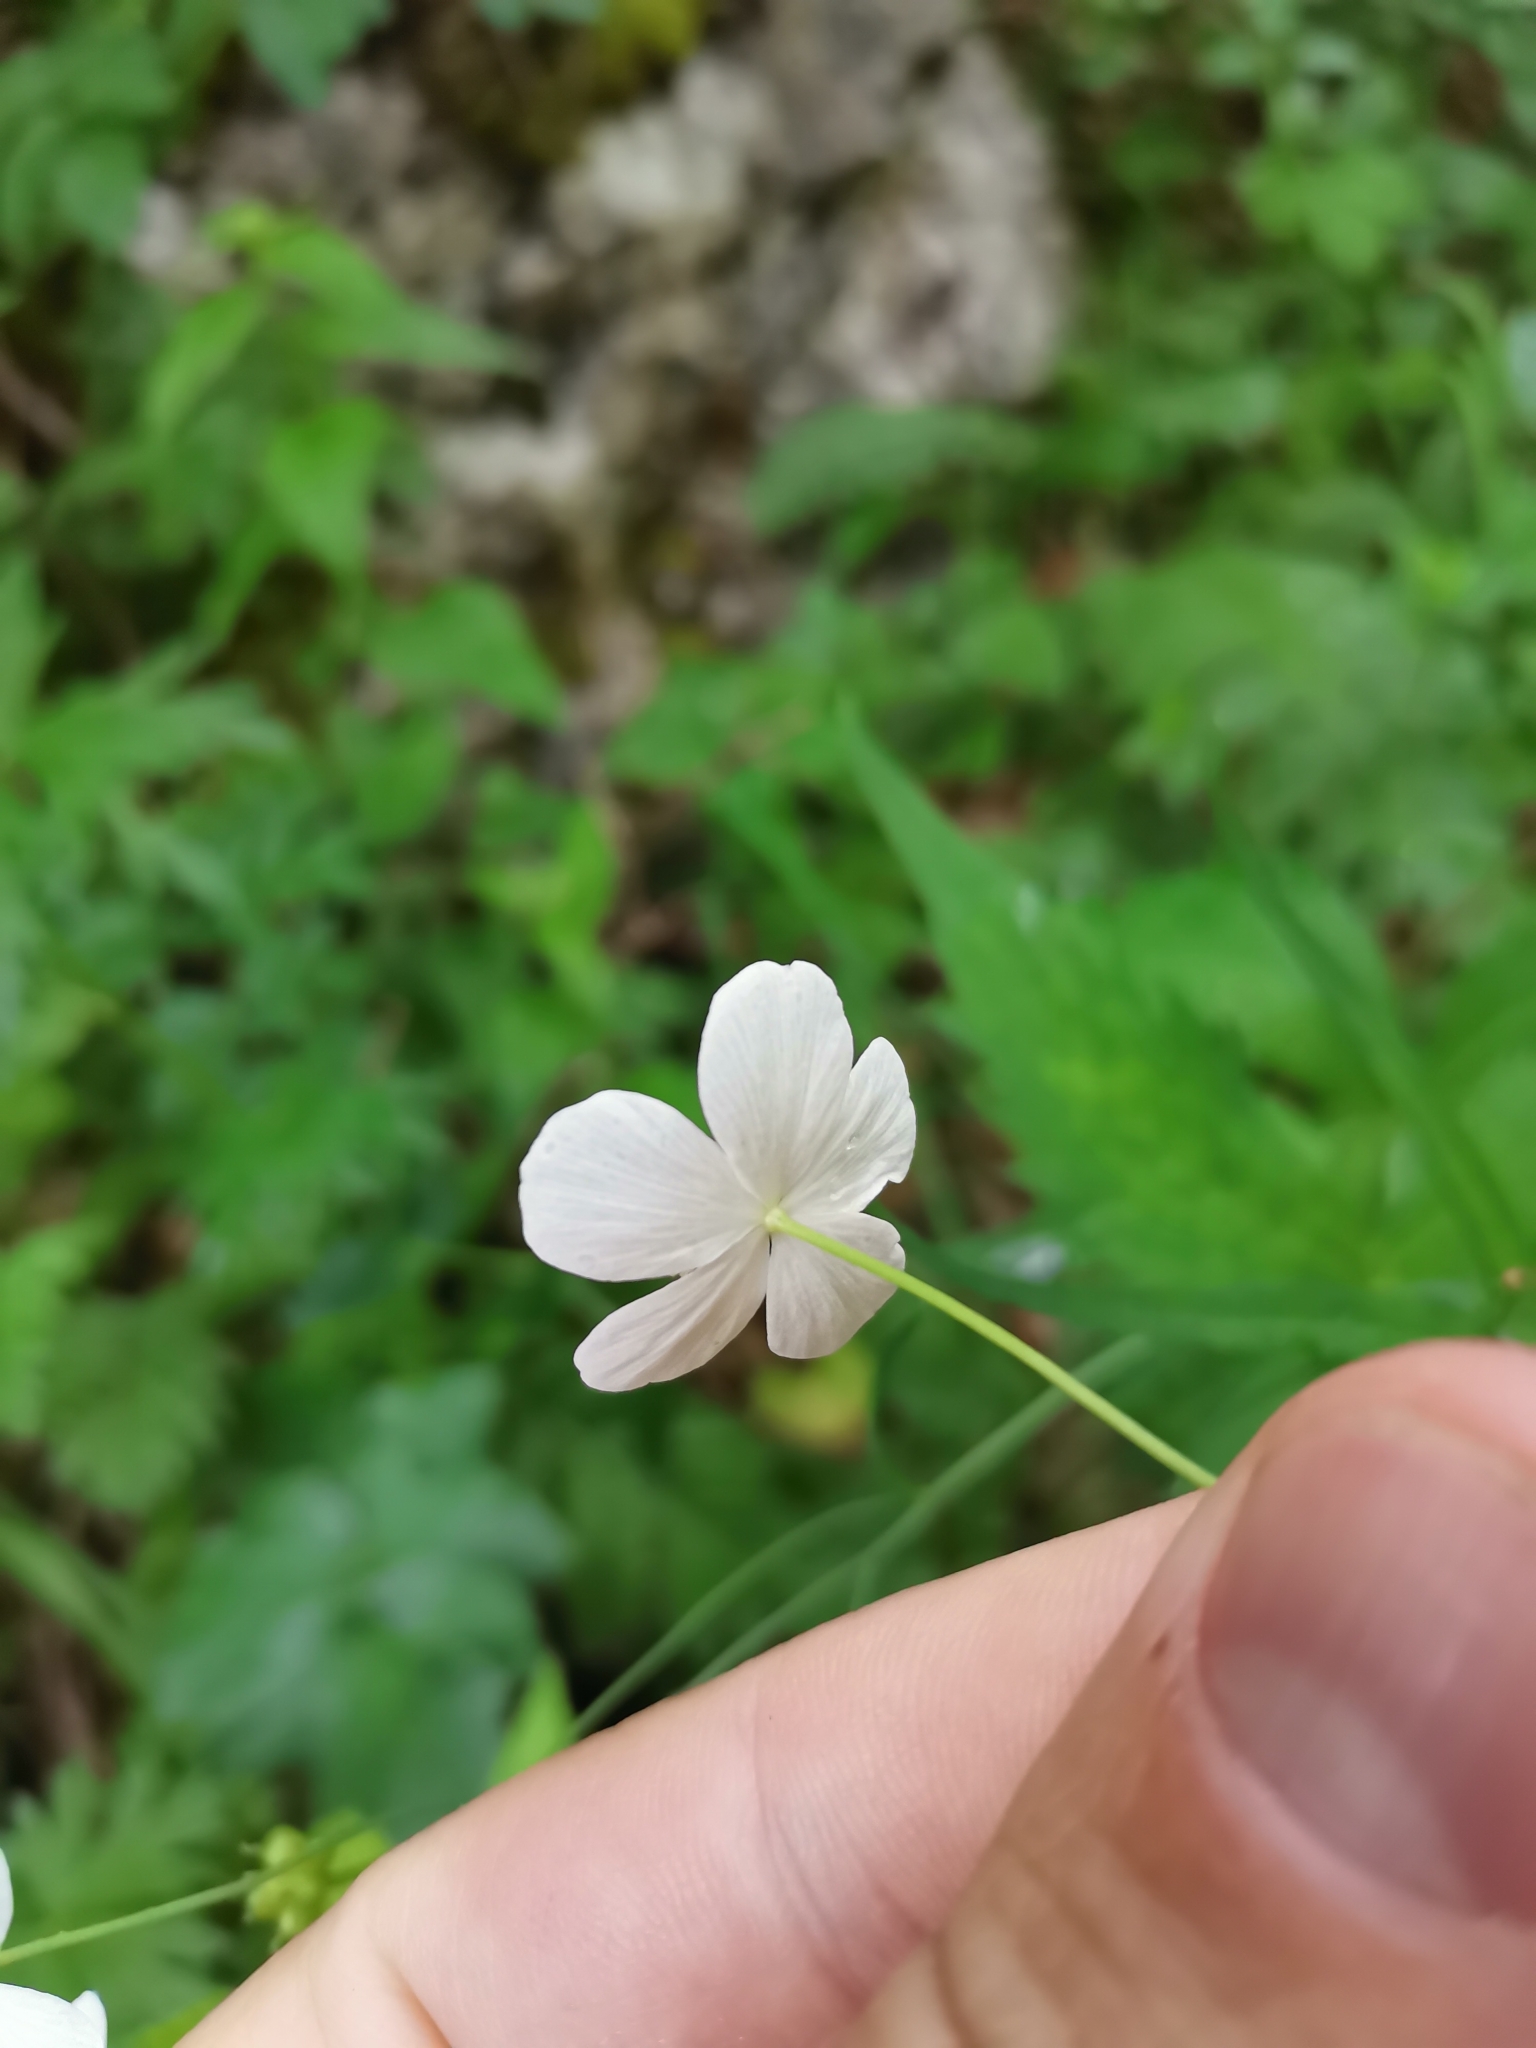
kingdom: Plantae
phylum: Tracheophyta
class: Magnoliopsida
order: Ranunculales
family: Ranunculaceae
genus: Ranunculus
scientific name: Ranunculus platanifolius
